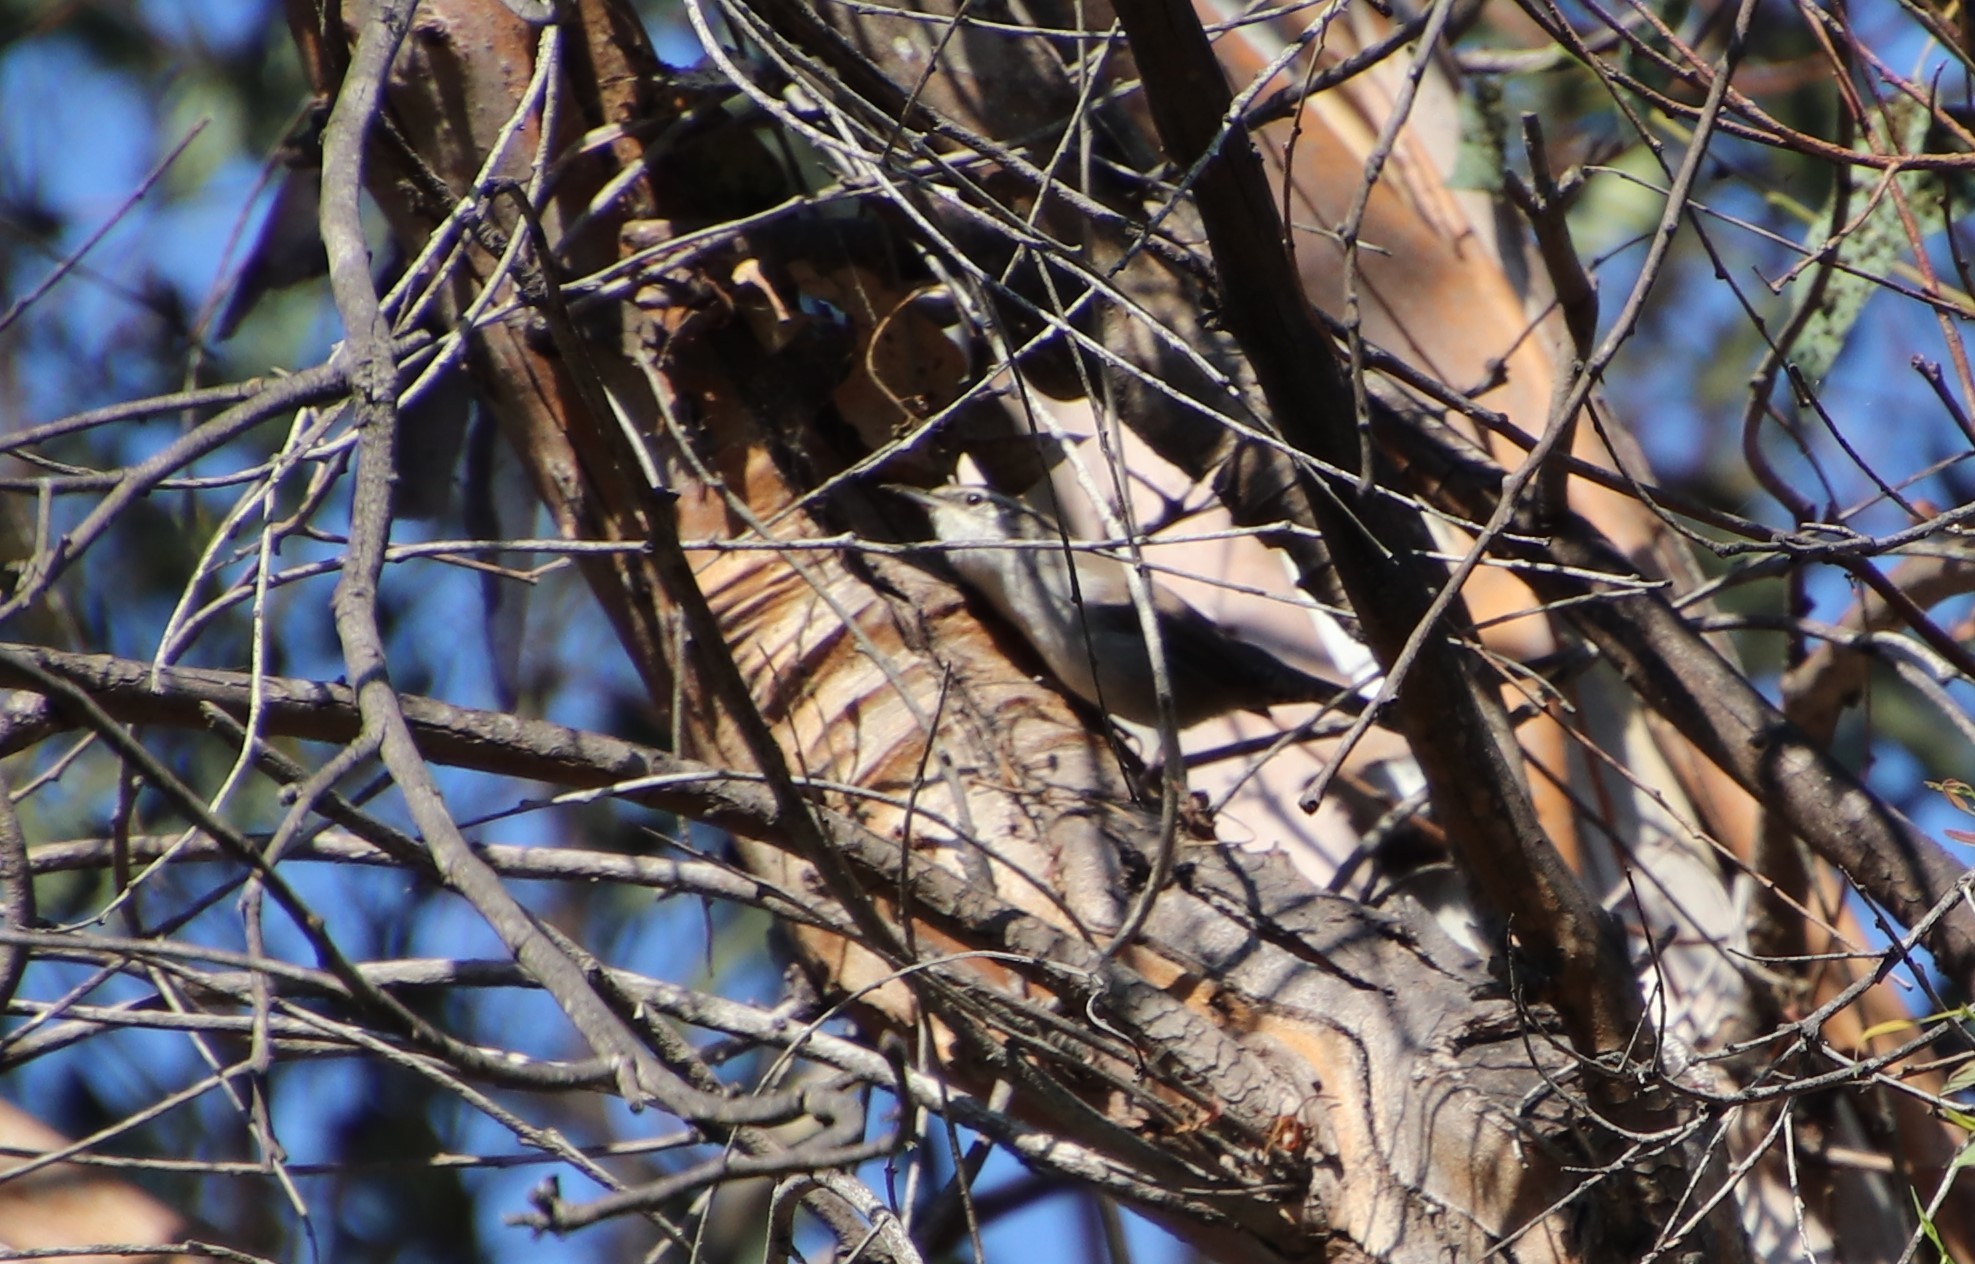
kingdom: Animalia
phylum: Chordata
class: Aves
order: Passeriformes
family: Troglodytidae
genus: Thryomanes
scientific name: Thryomanes bewickii
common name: Bewick's wren
